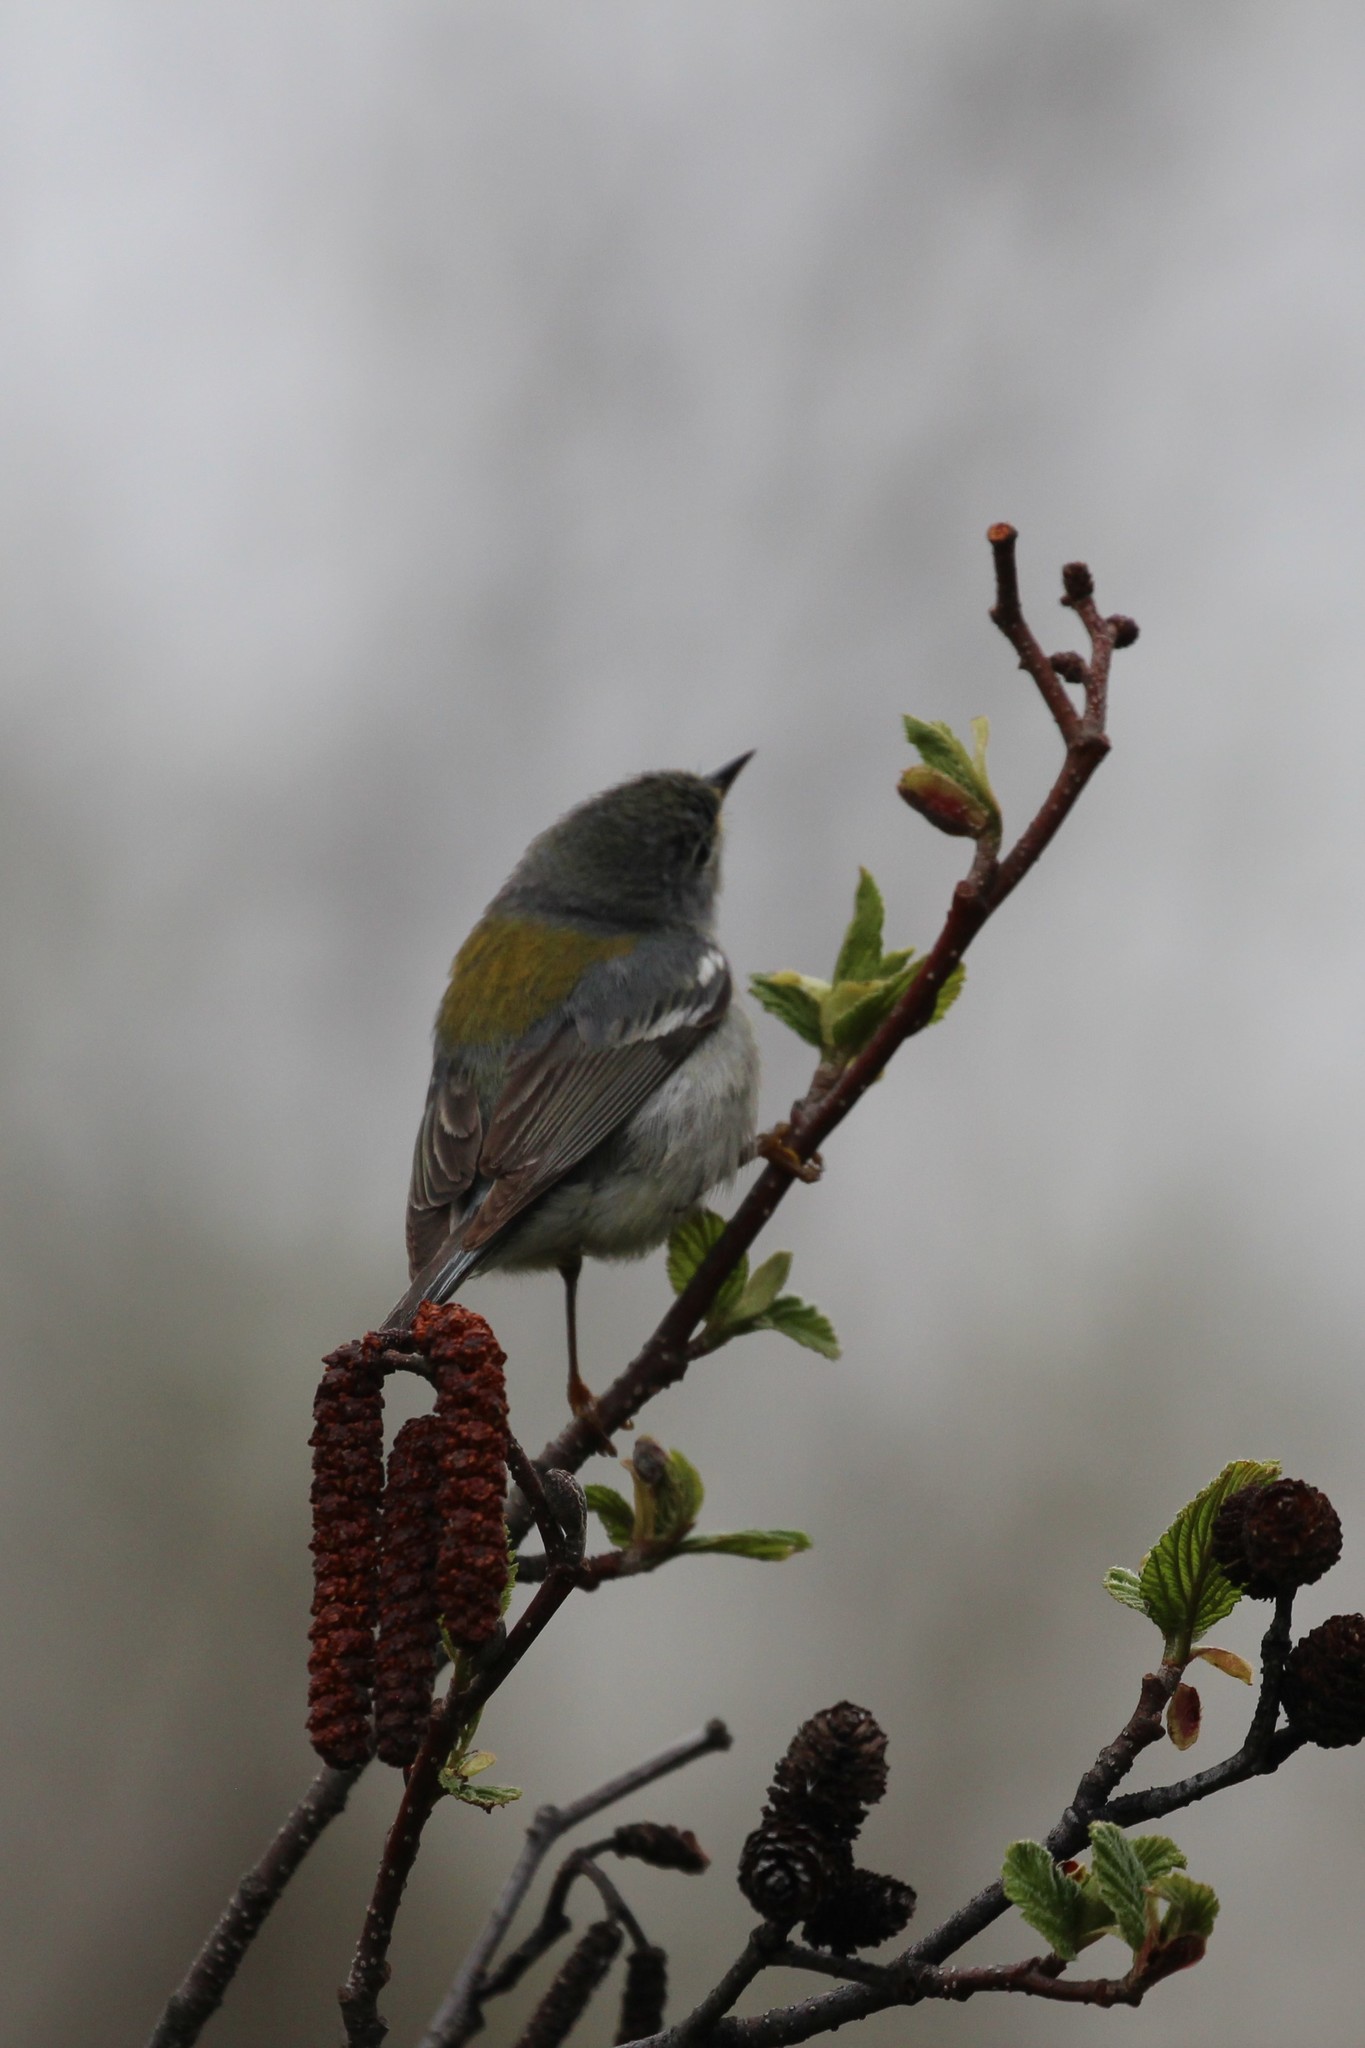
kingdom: Animalia
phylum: Chordata
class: Aves
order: Passeriformes
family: Parulidae
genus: Setophaga
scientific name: Setophaga americana
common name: Northern parula
